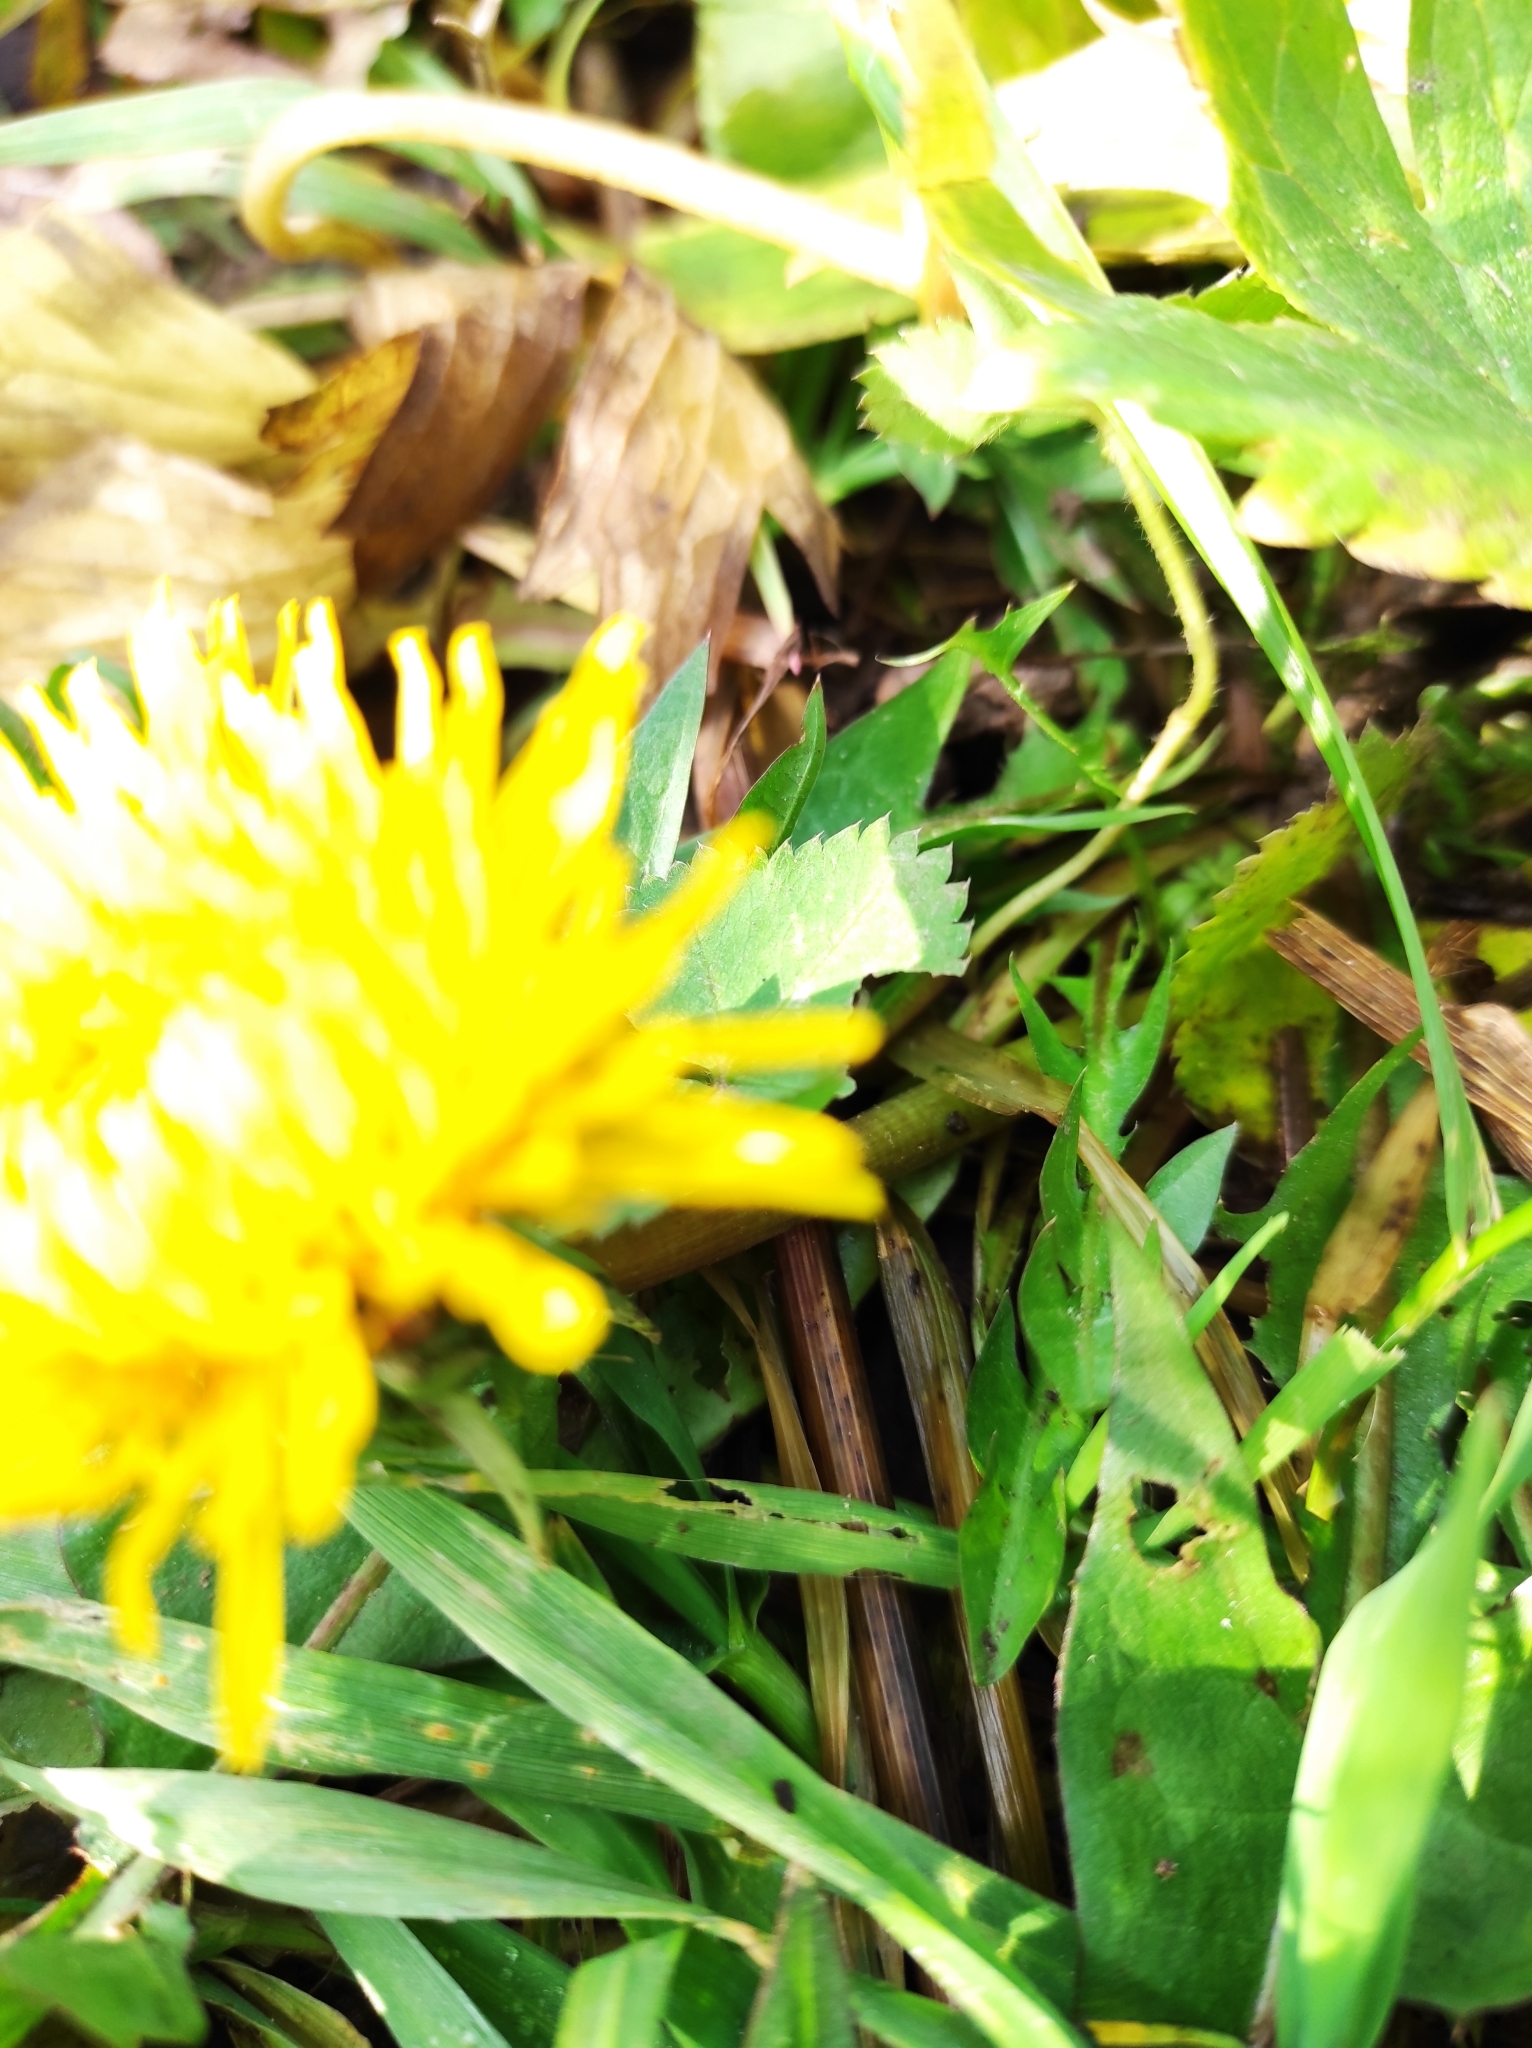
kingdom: Plantae
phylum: Tracheophyta
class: Magnoliopsida
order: Asterales
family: Asteraceae
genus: Taraxacum
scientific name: Taraxacum officinale
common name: Common dandelion
